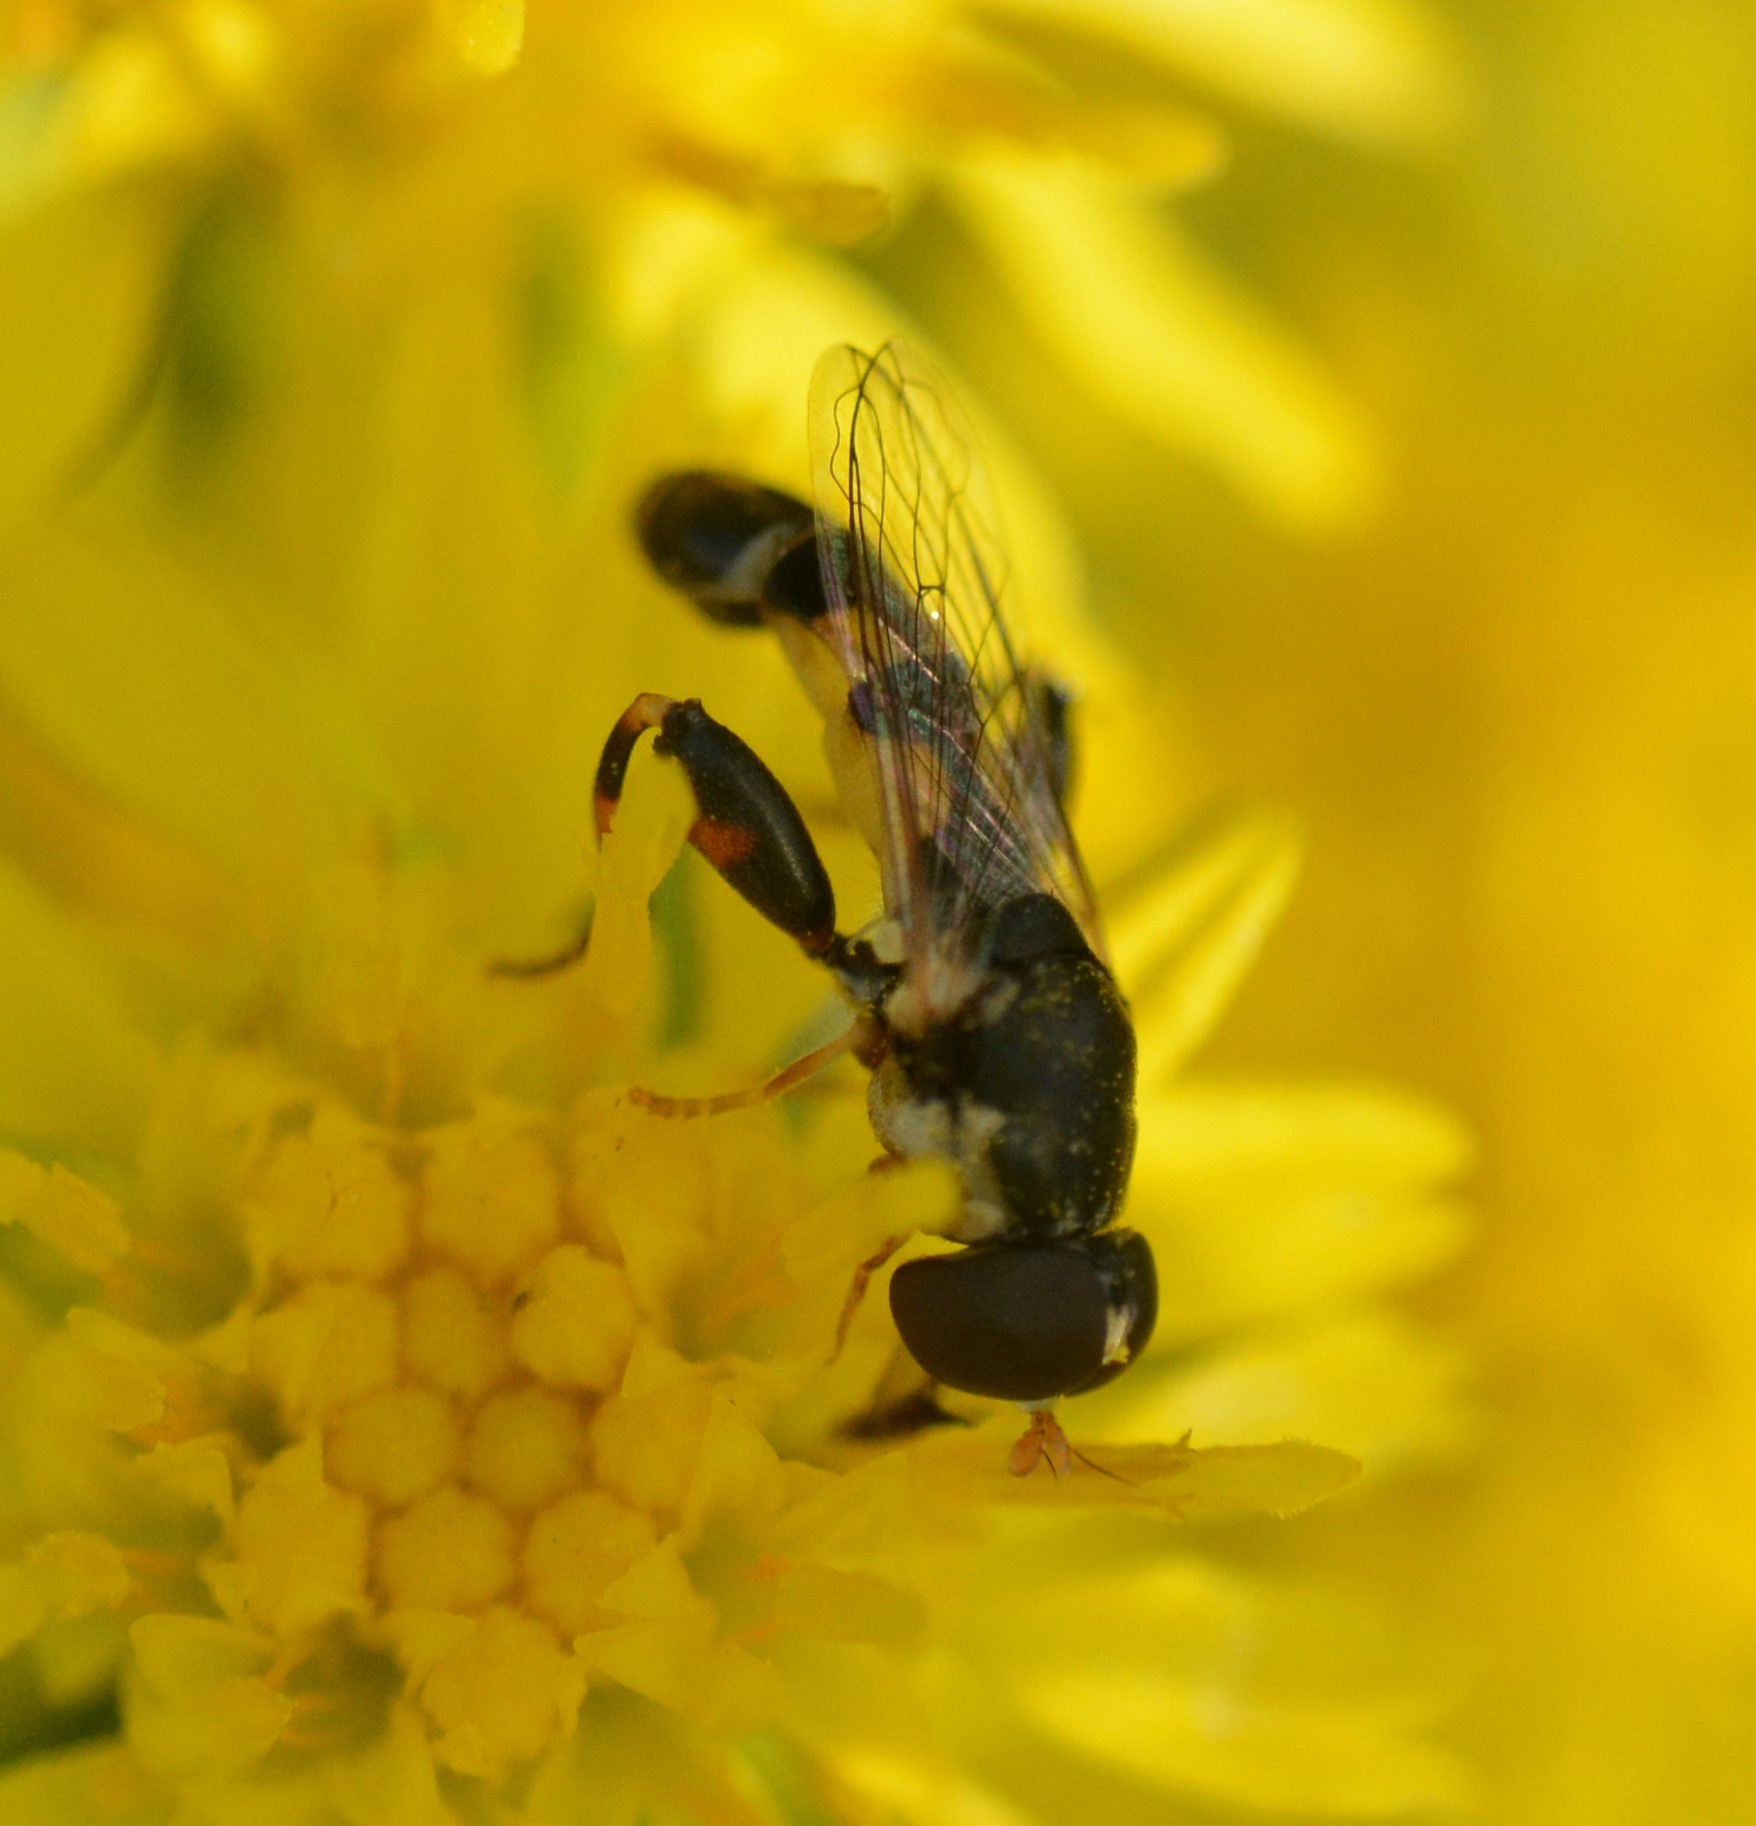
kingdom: Animalia
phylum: Arthropoda
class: Insecta
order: Diptera
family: Syrphidae
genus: Syritta
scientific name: Syritta pipiens
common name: Hover fly
